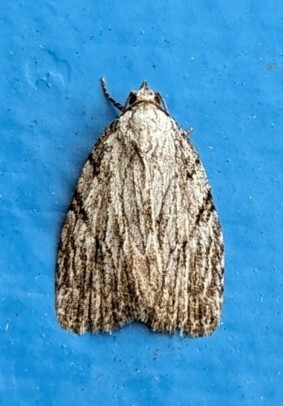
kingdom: Animalia
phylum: Arthropoda
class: Insecta
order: Lepidoptera
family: Noctuidae
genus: Balsa
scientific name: Balsa tristrigella
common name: Three-lined balsa moth
